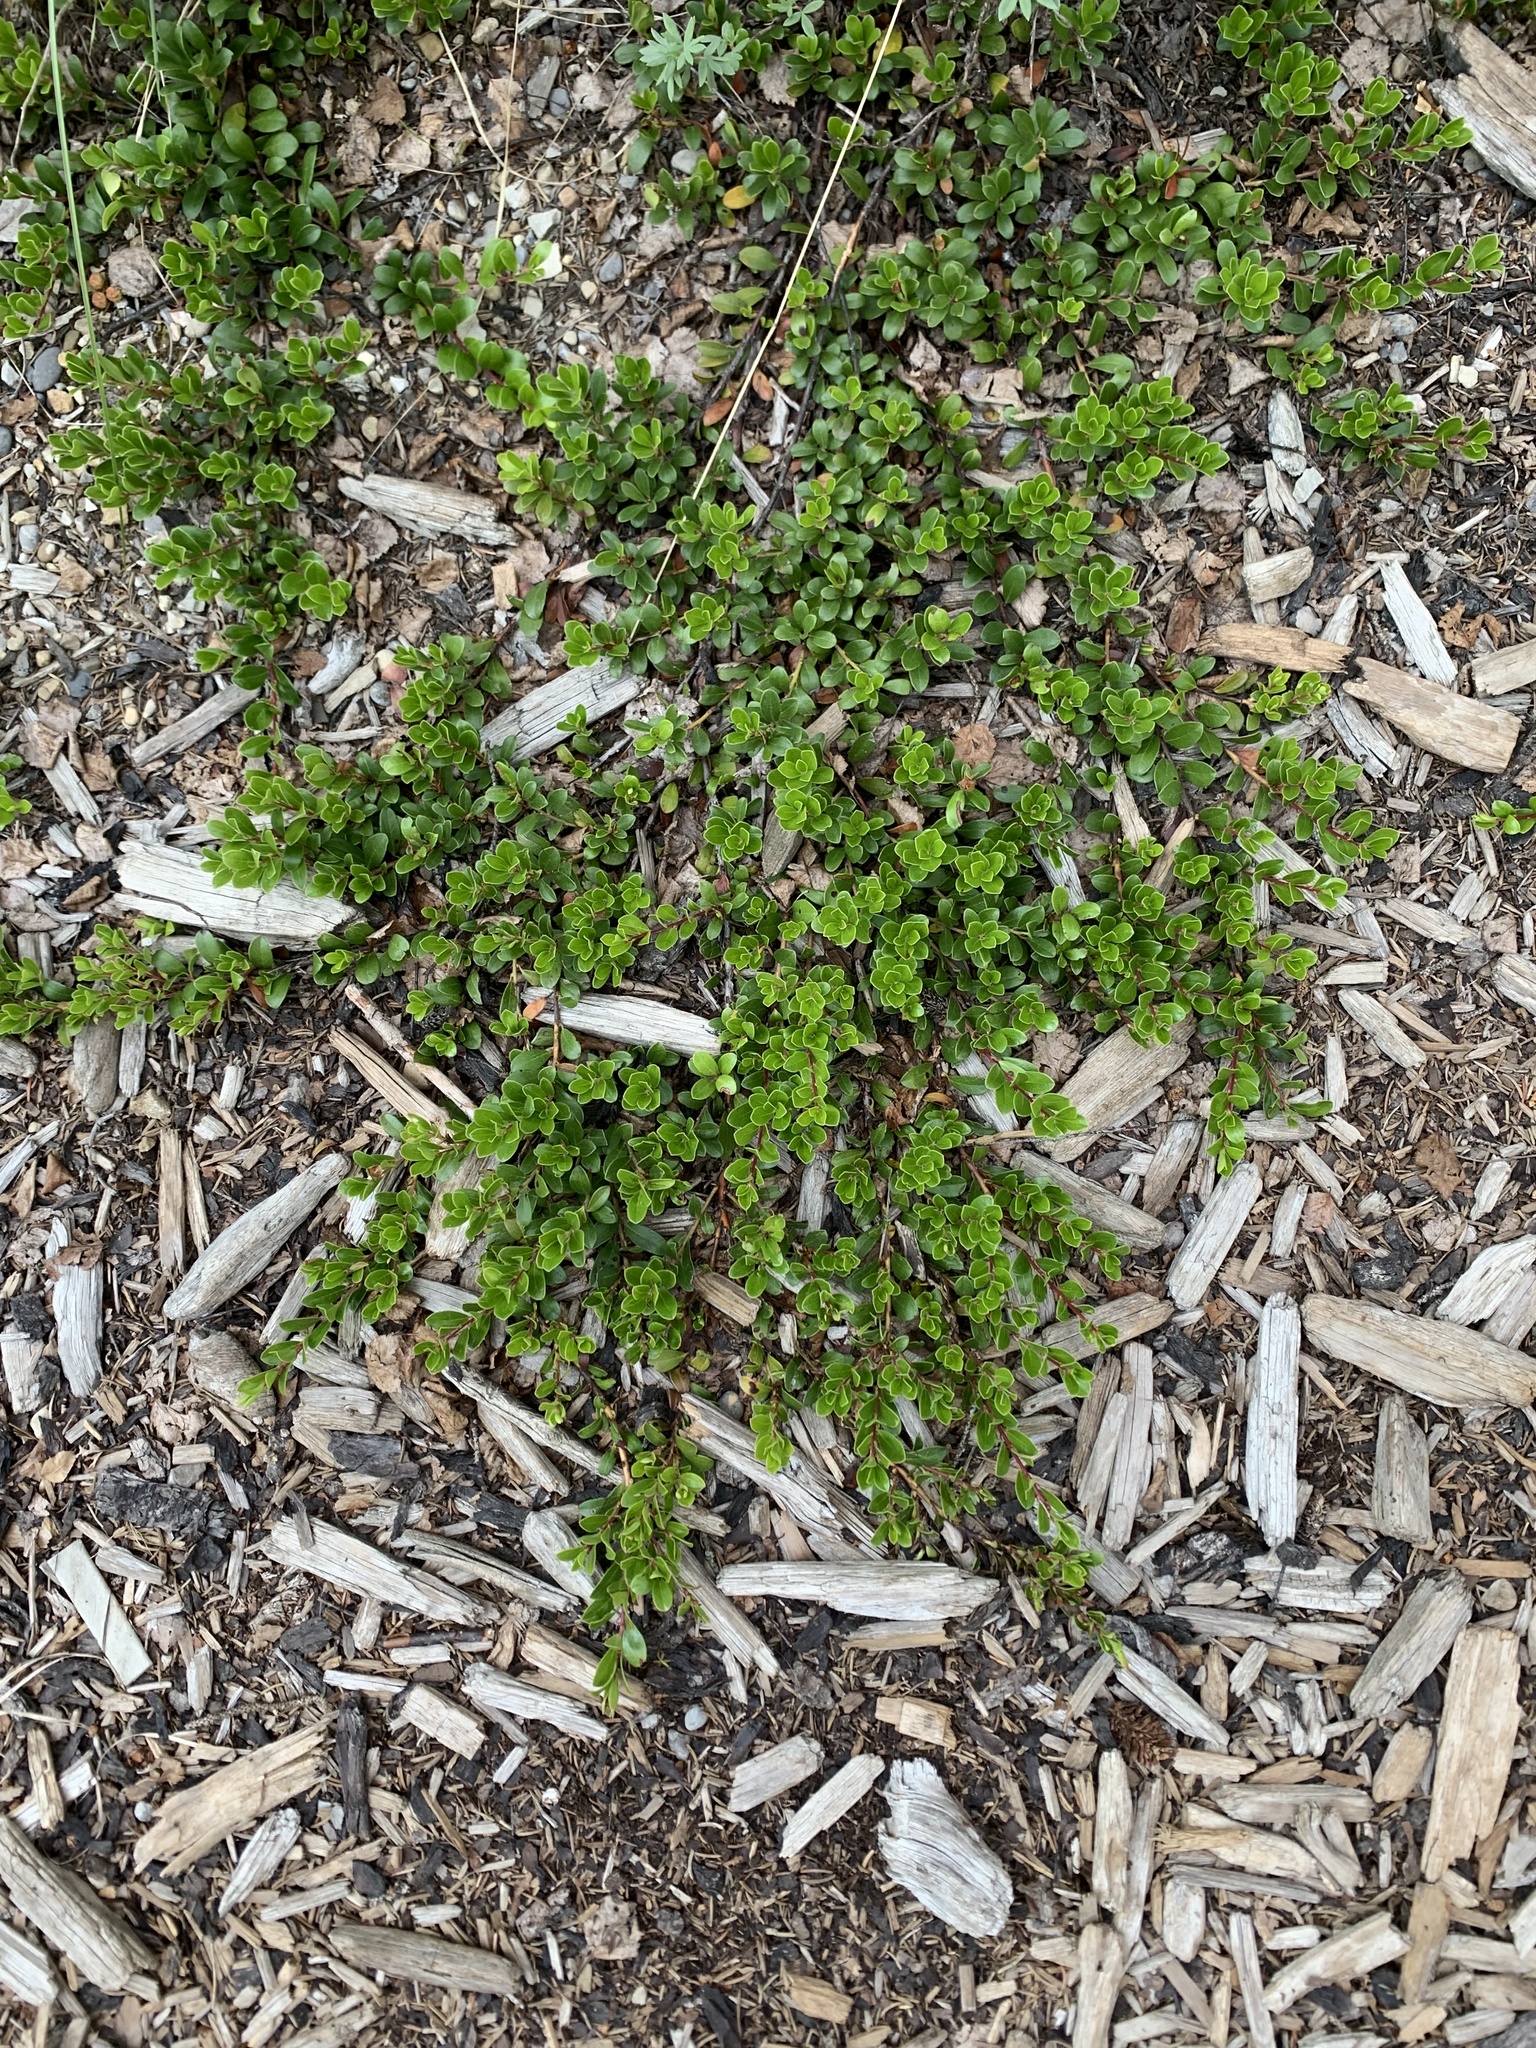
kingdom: Plantae
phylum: Tracheophyta
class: Magnoliopsida
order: Ericales
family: Ericaceae
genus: Arctostaphylos
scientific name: Arctostaphylos uva-ursi
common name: Bearberry
